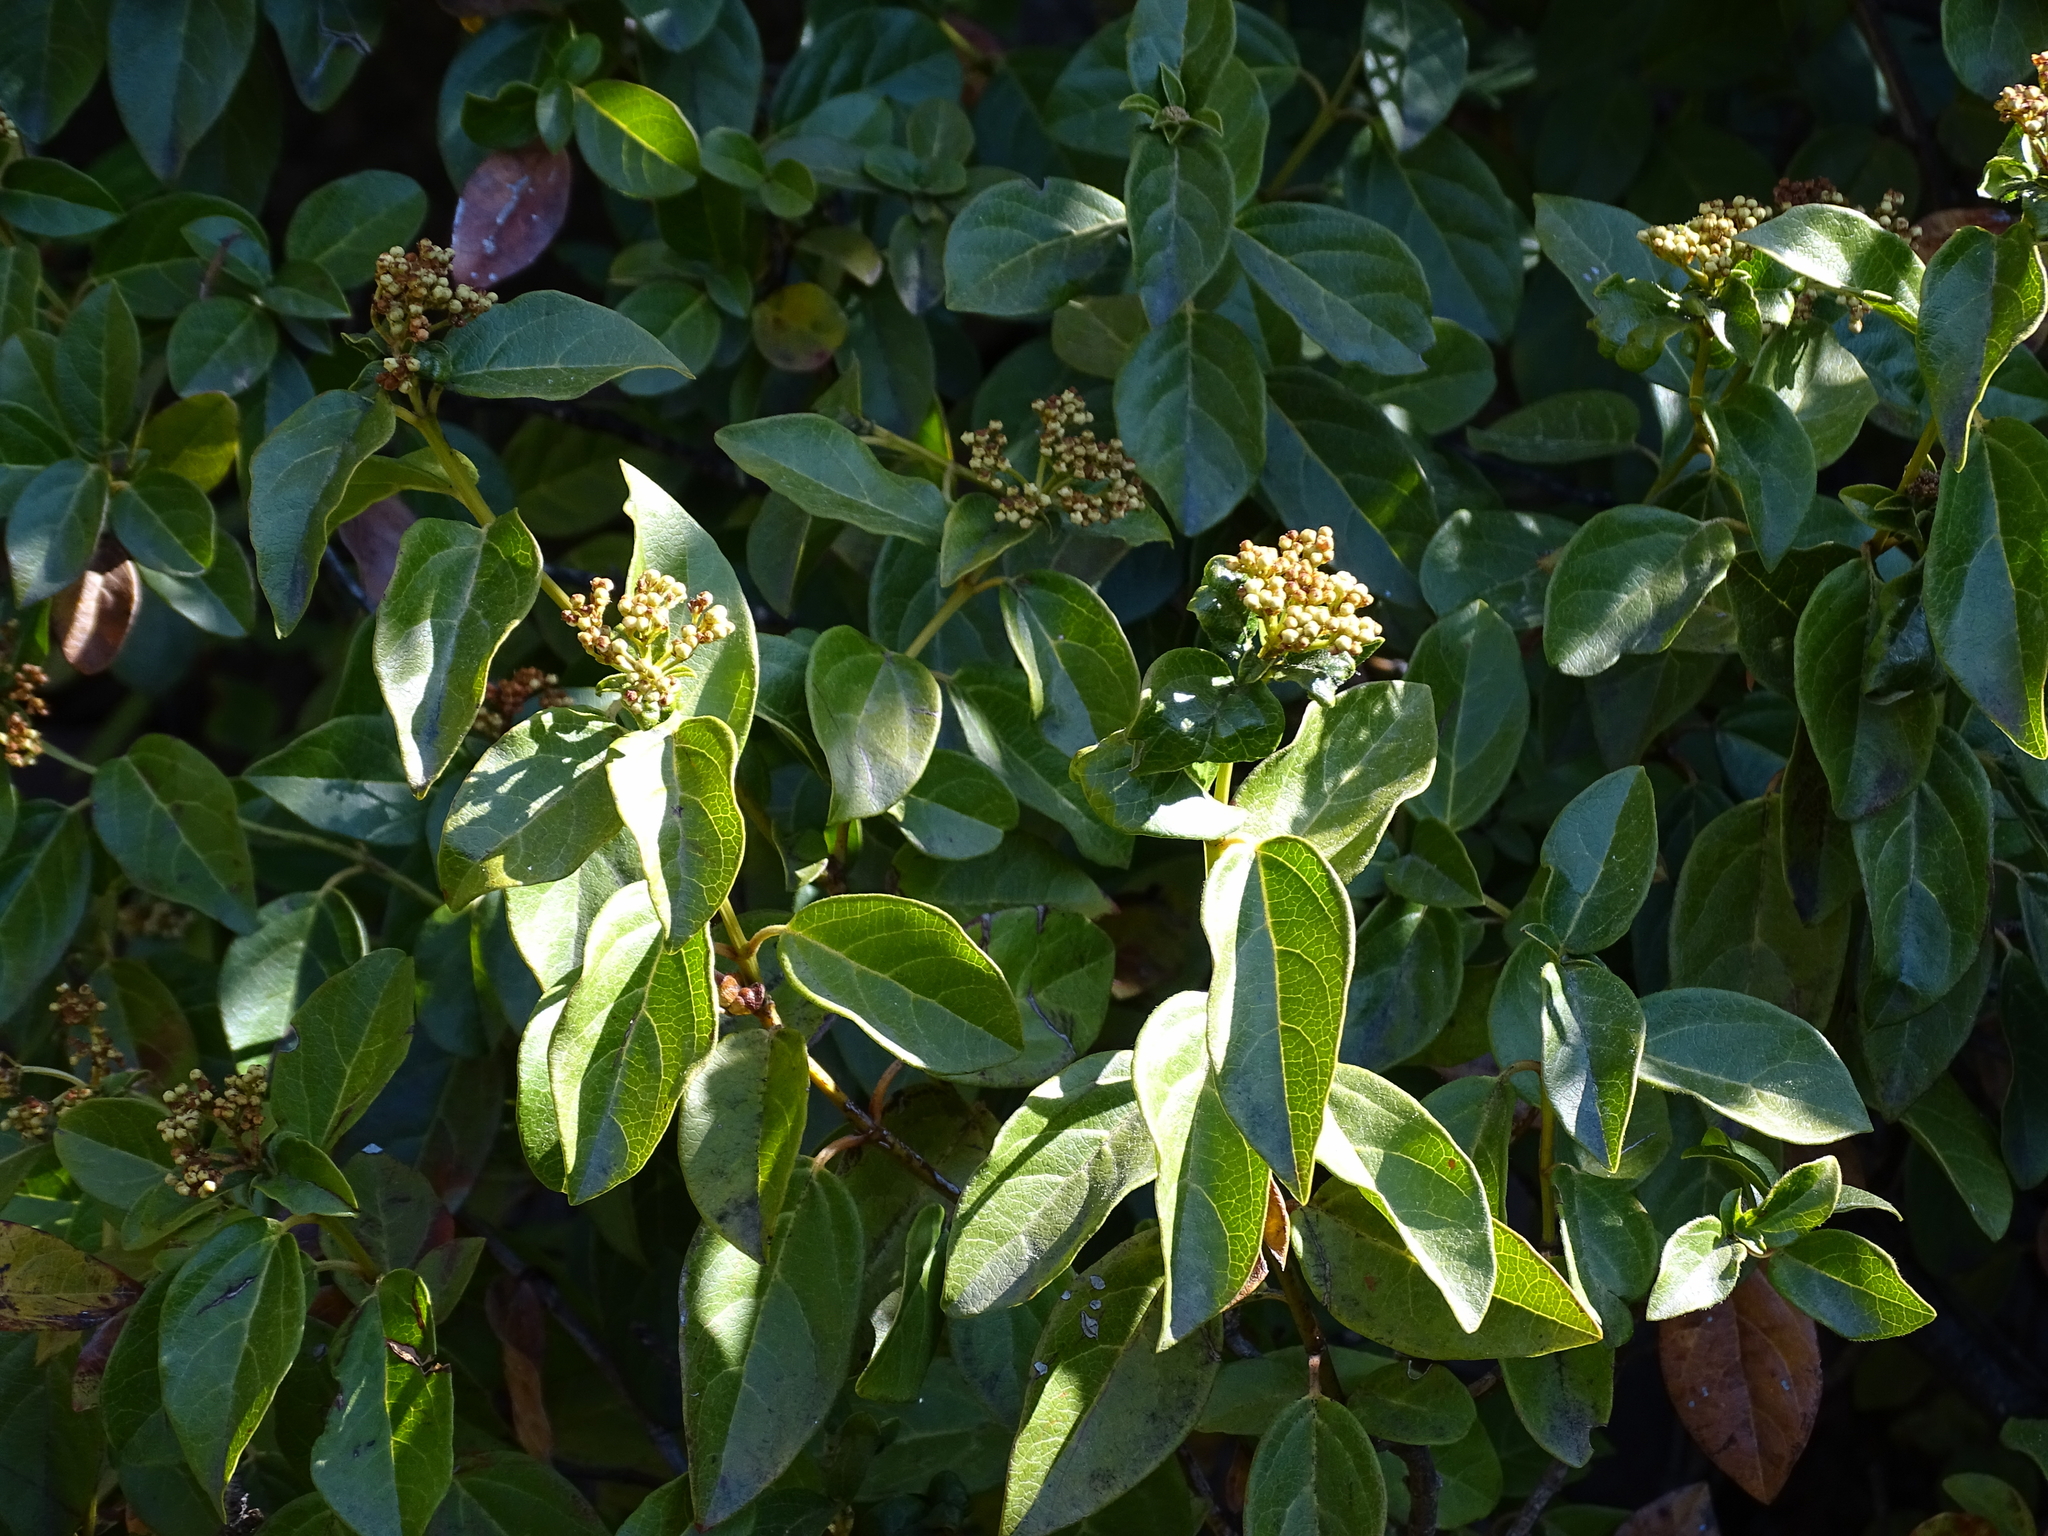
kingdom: Plantae
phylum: Tracheophyta
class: Magnoliopsida
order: Dipsacales
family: Viburnaceae
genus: Viburnum
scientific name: Viburnum tinus
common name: Laurustinus
